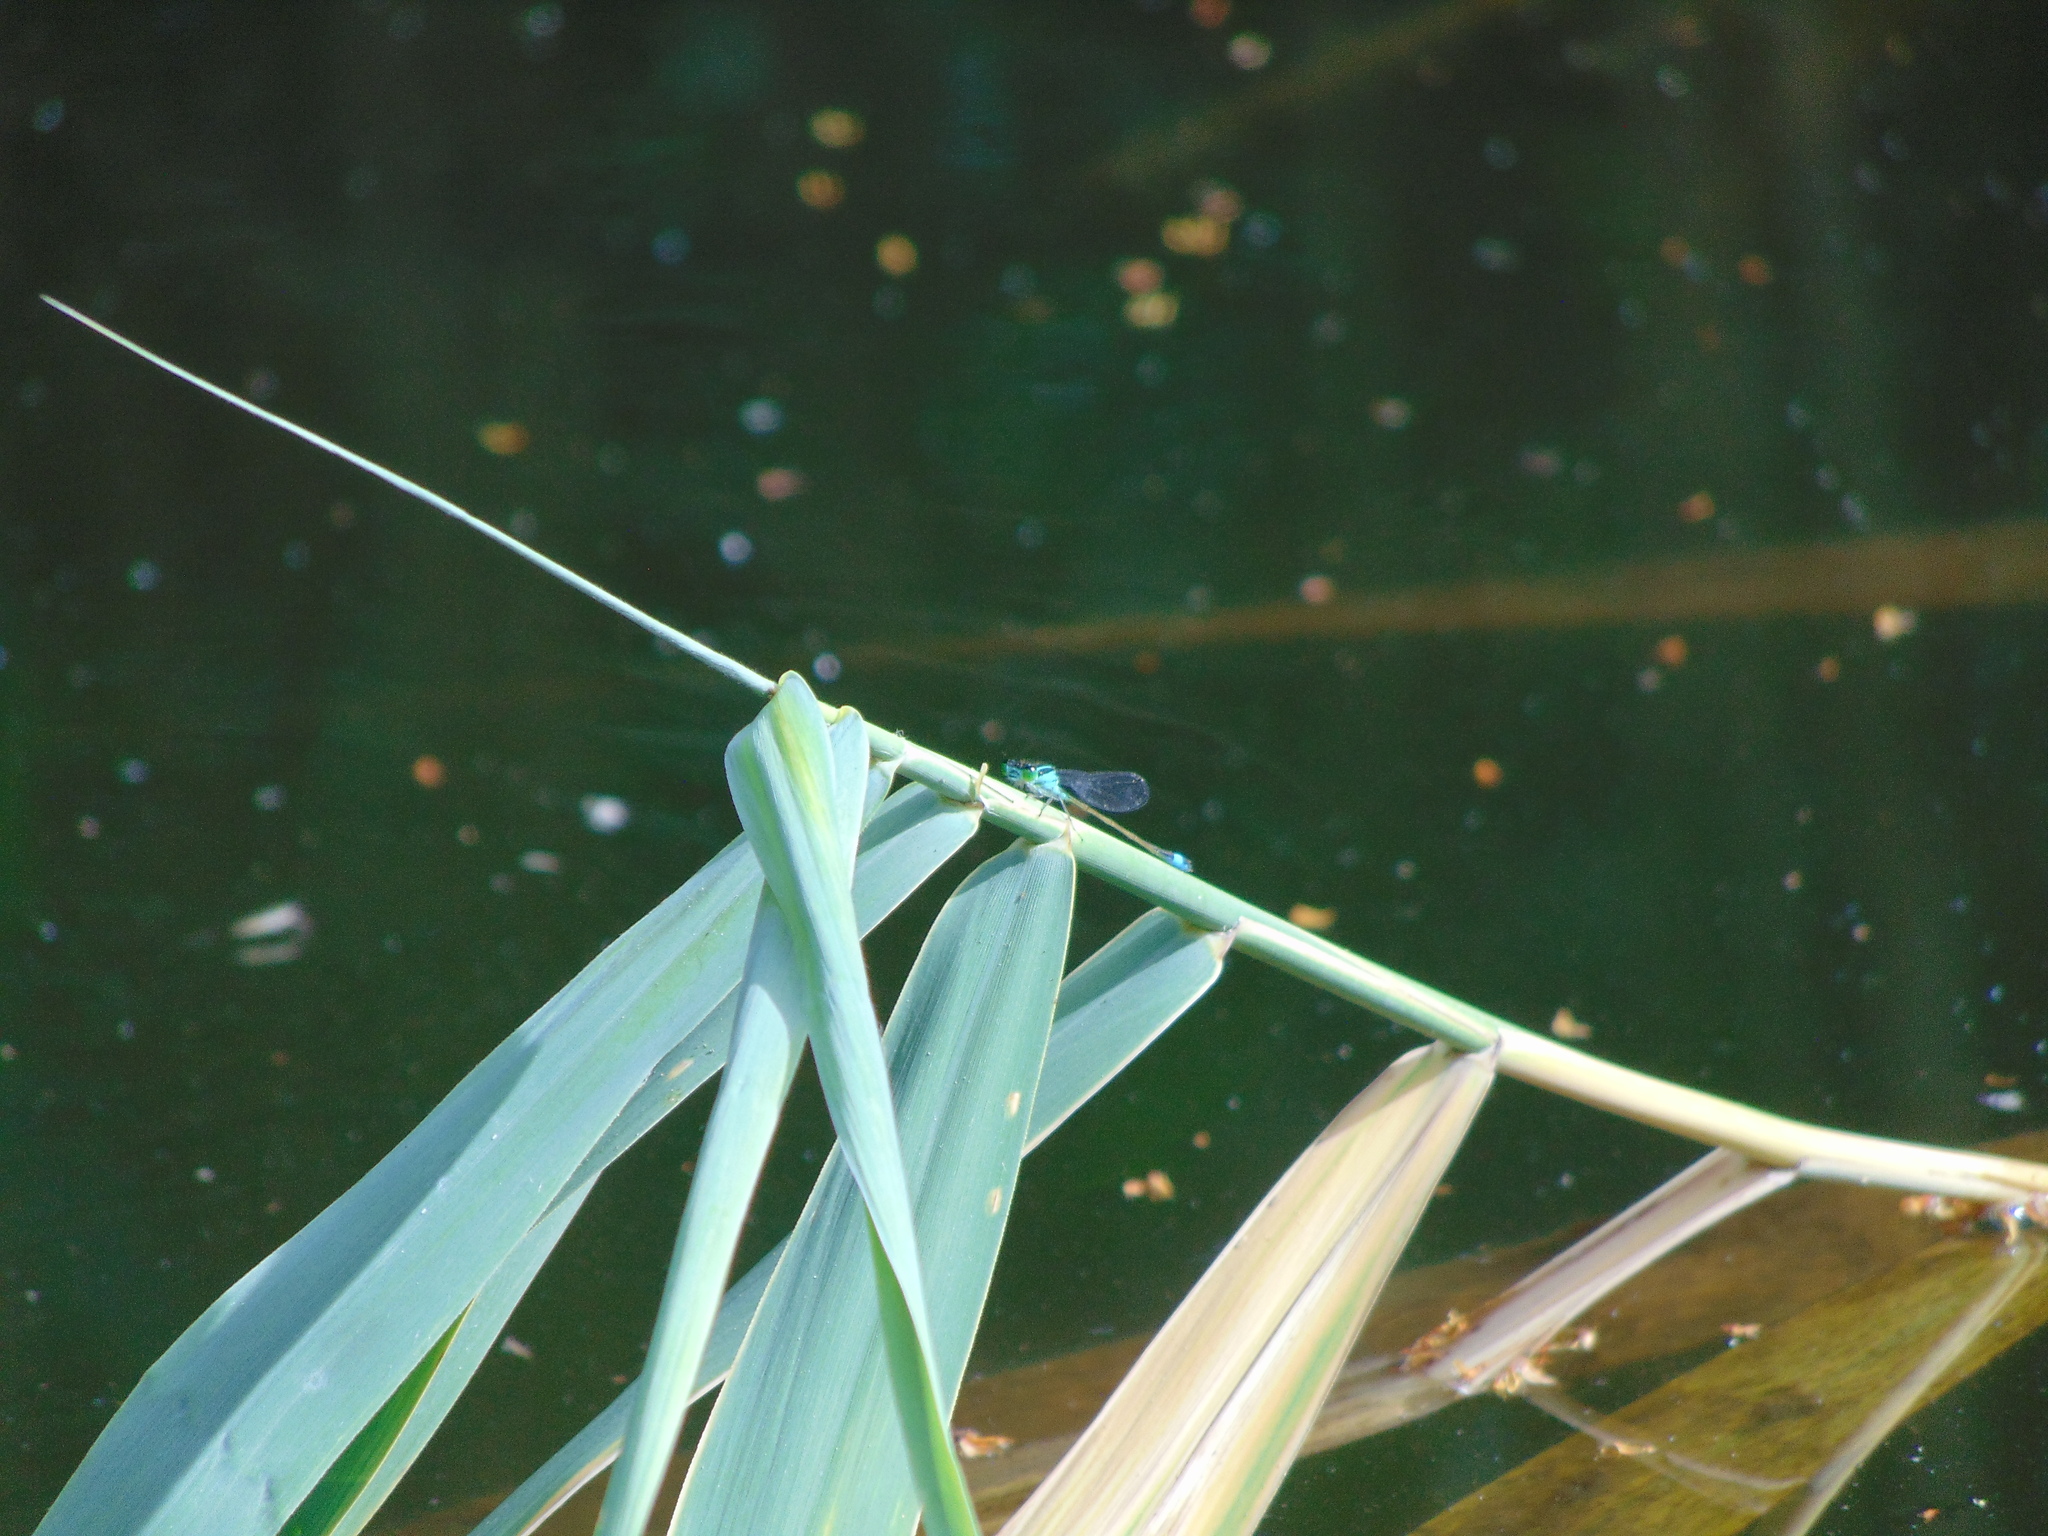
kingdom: Animalia
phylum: Arthropoda
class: Insecta
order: Odonata
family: Coenagrionidae
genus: Ischnura
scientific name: Ischnura elegans
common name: Blue-tailed damselfly
